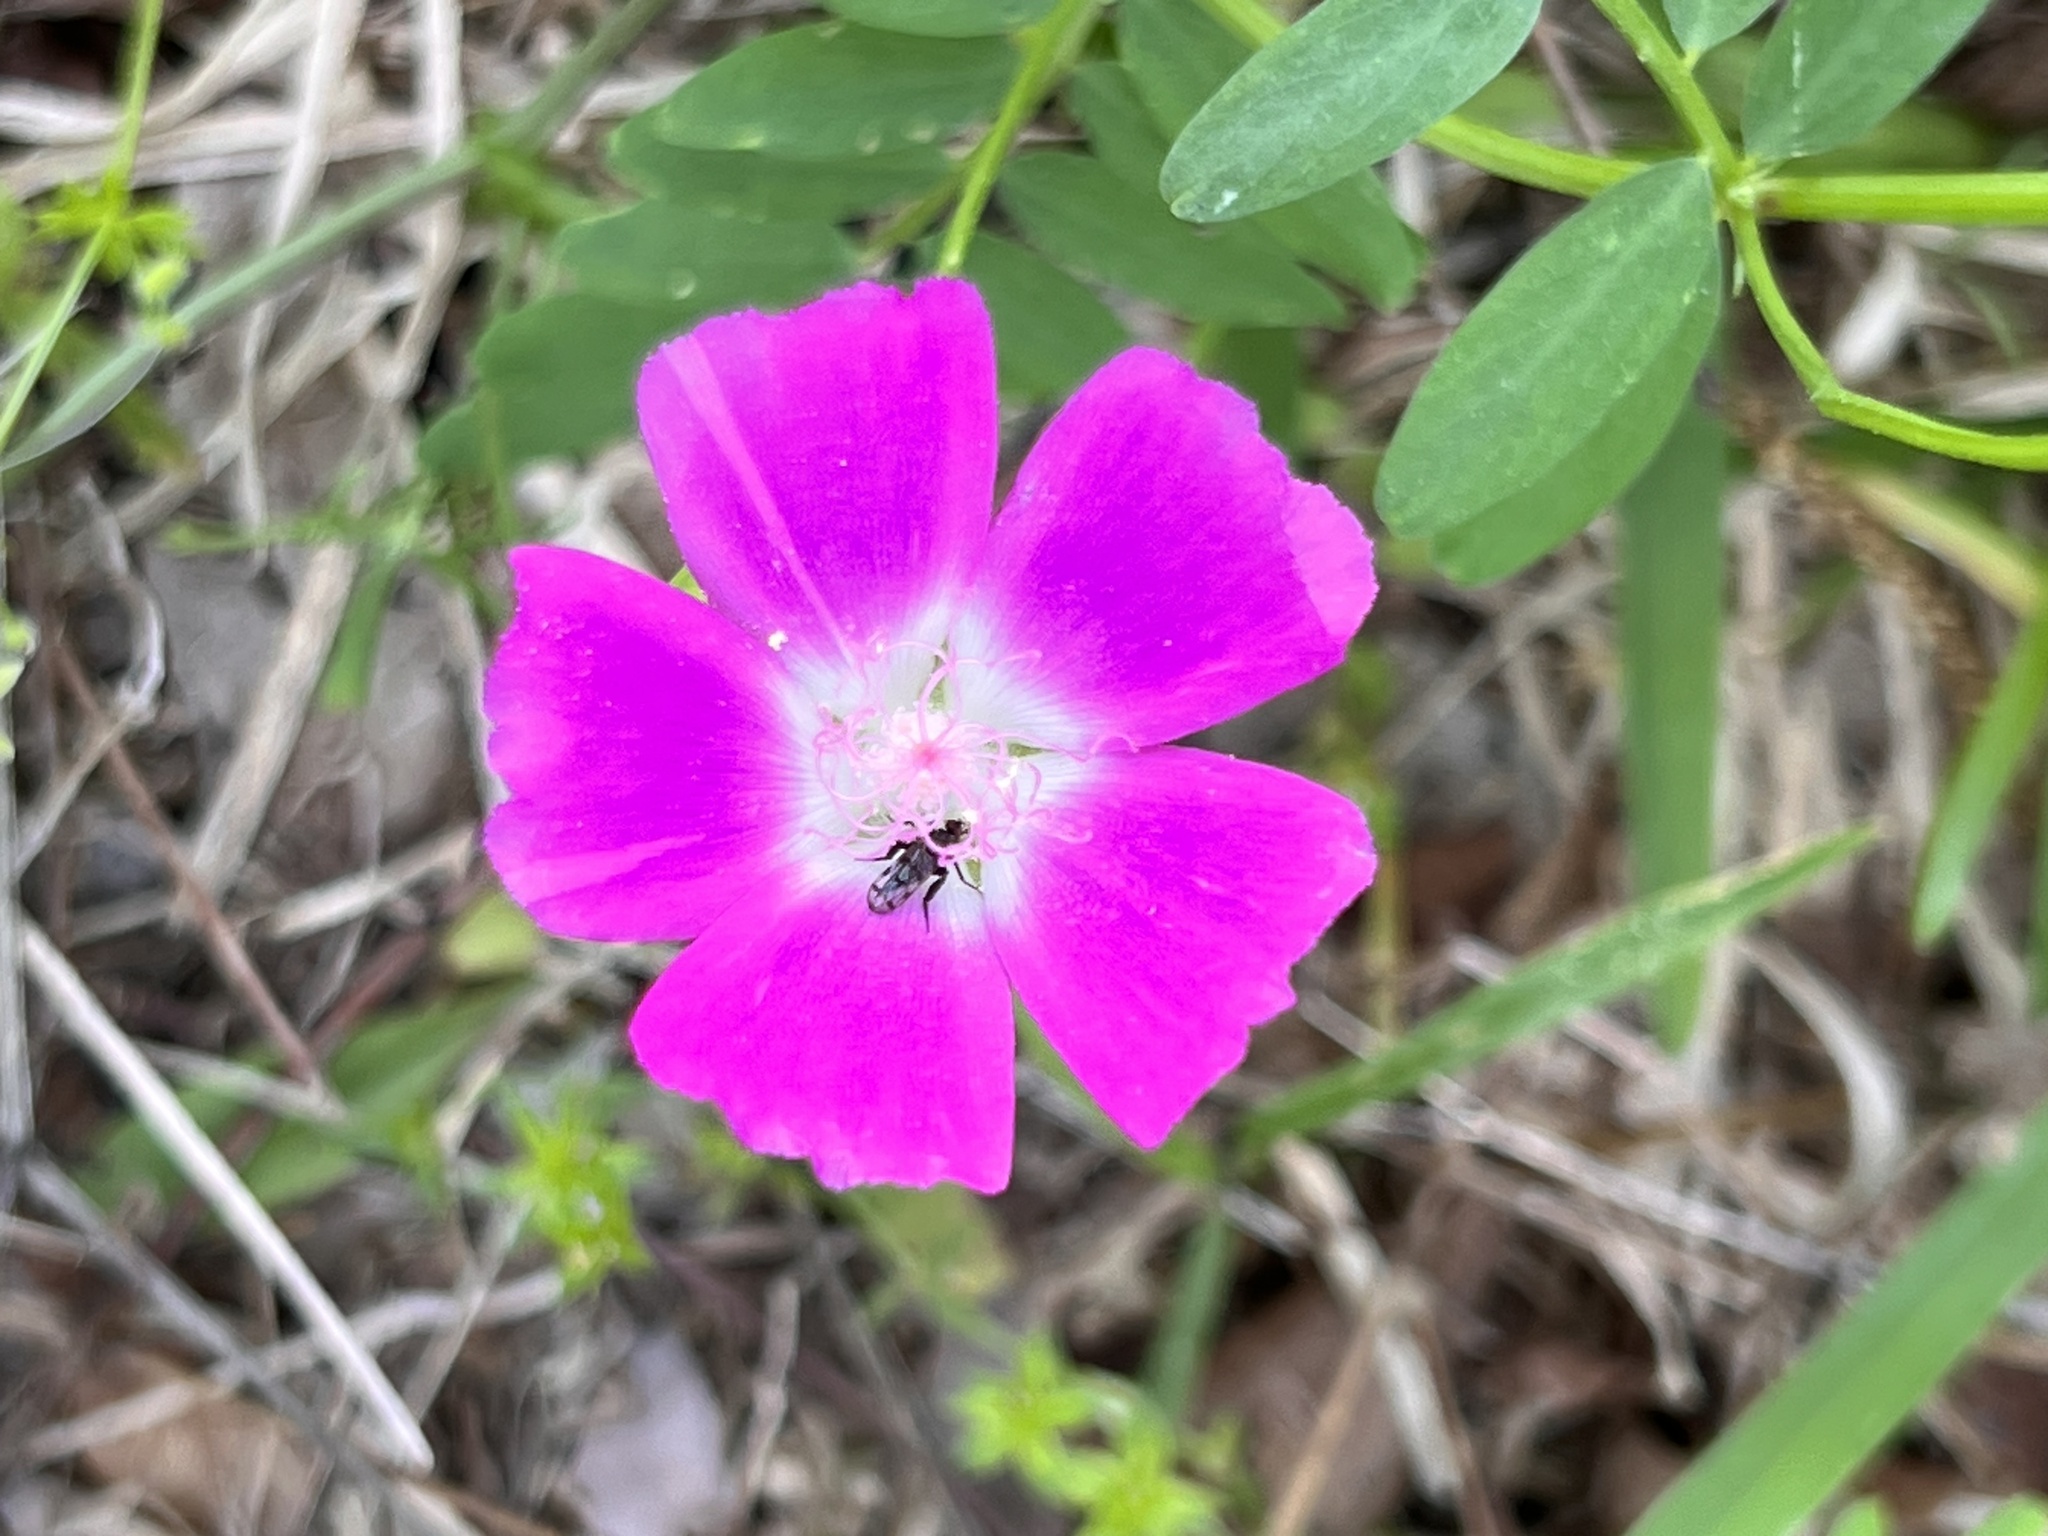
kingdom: Plantae
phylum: Tracheophyta
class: Magnoliopsida
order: Malvales
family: Malvaceae
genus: Callirhoe
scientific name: Callirhoe involucrata
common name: Purple poppy-mallow
